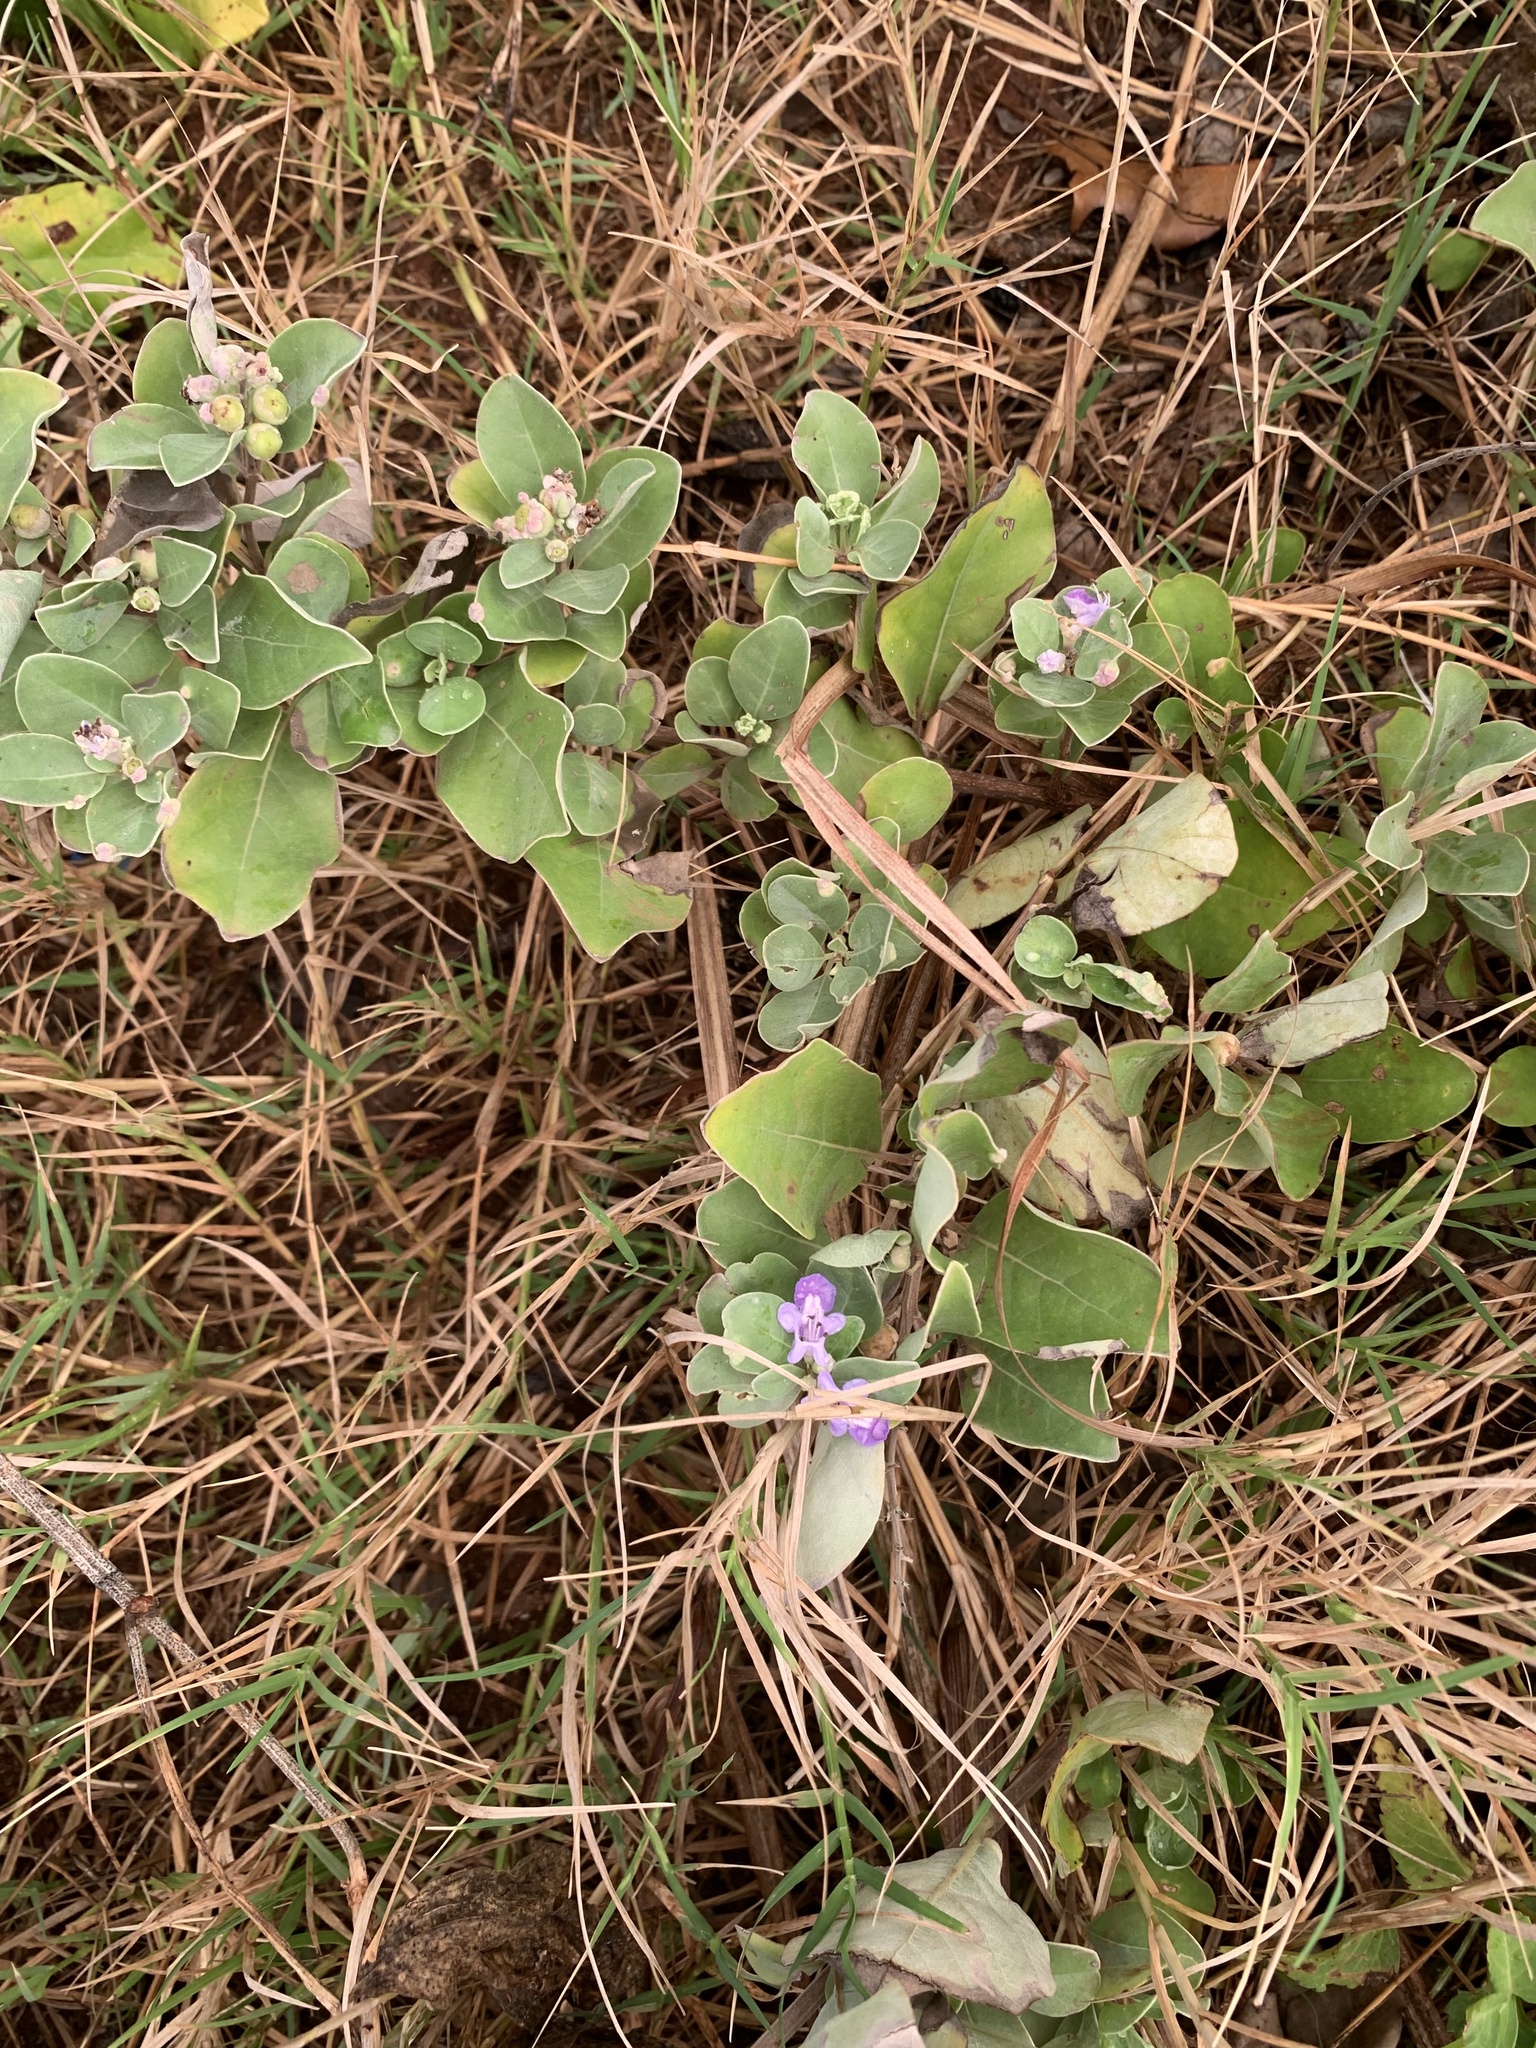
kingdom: Plantae
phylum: Tracheophyta
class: Magnoliopsida
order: Lamiales
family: Lamiaceae
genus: Vitex
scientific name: Vitex rotundifolia
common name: Beach vitex
